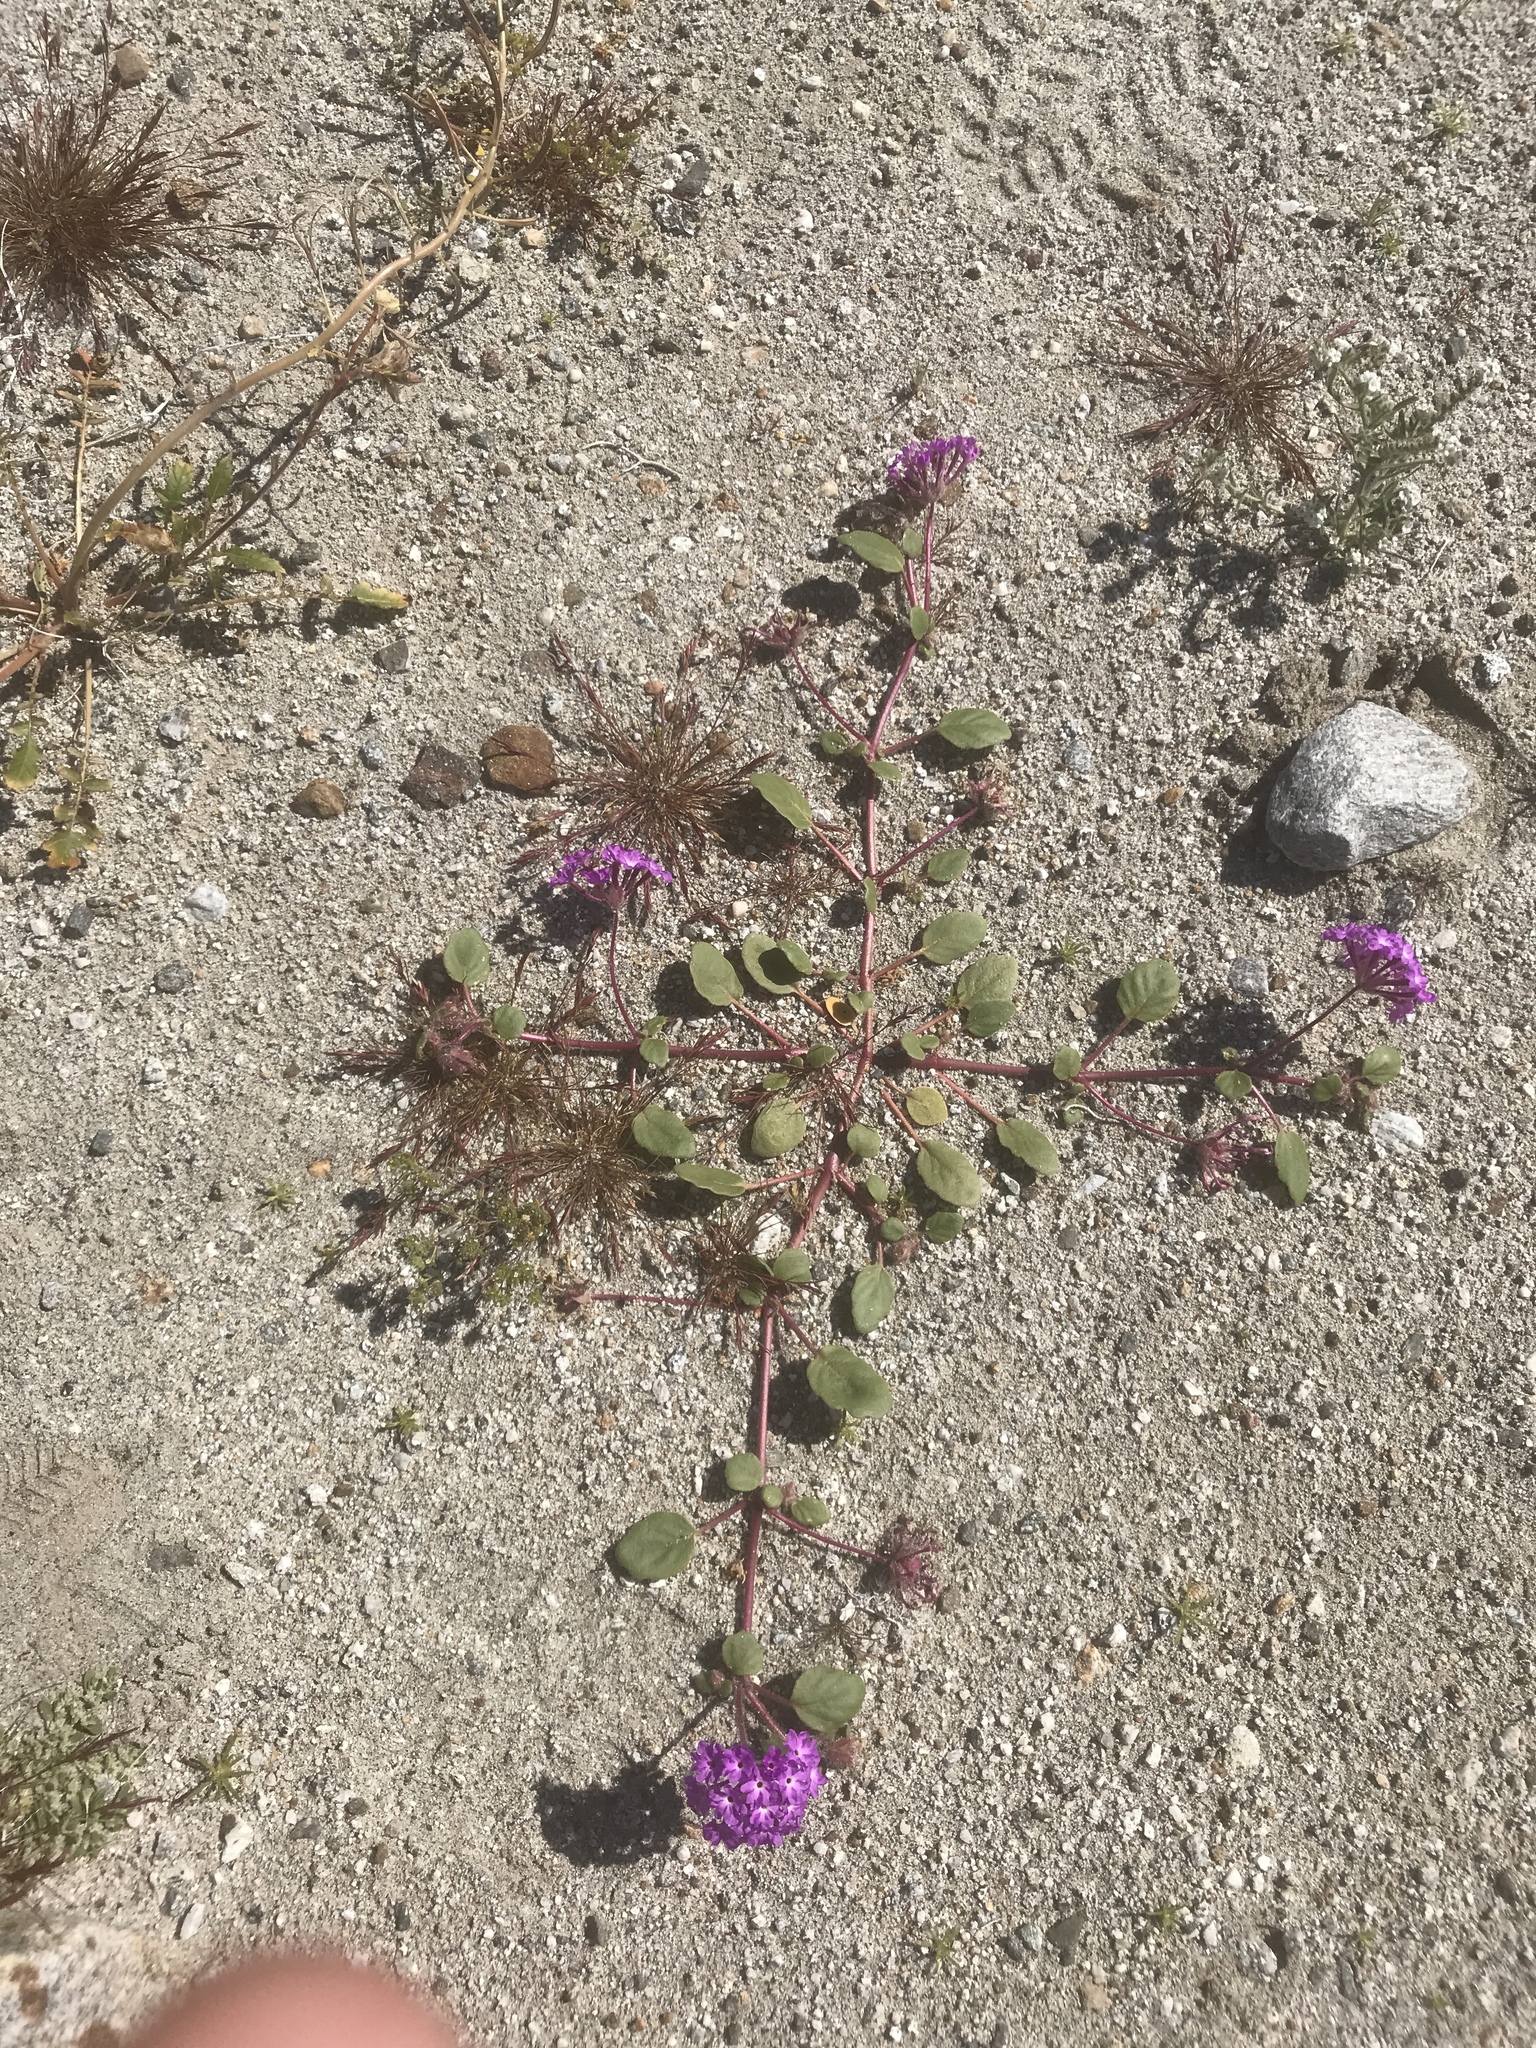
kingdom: Plantae
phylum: Tracheophyta
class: Magnoliopsida
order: Caryophyllales
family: Nyctaginaceae
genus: Abronia
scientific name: Abronia villosa
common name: Desert sand-verbena
